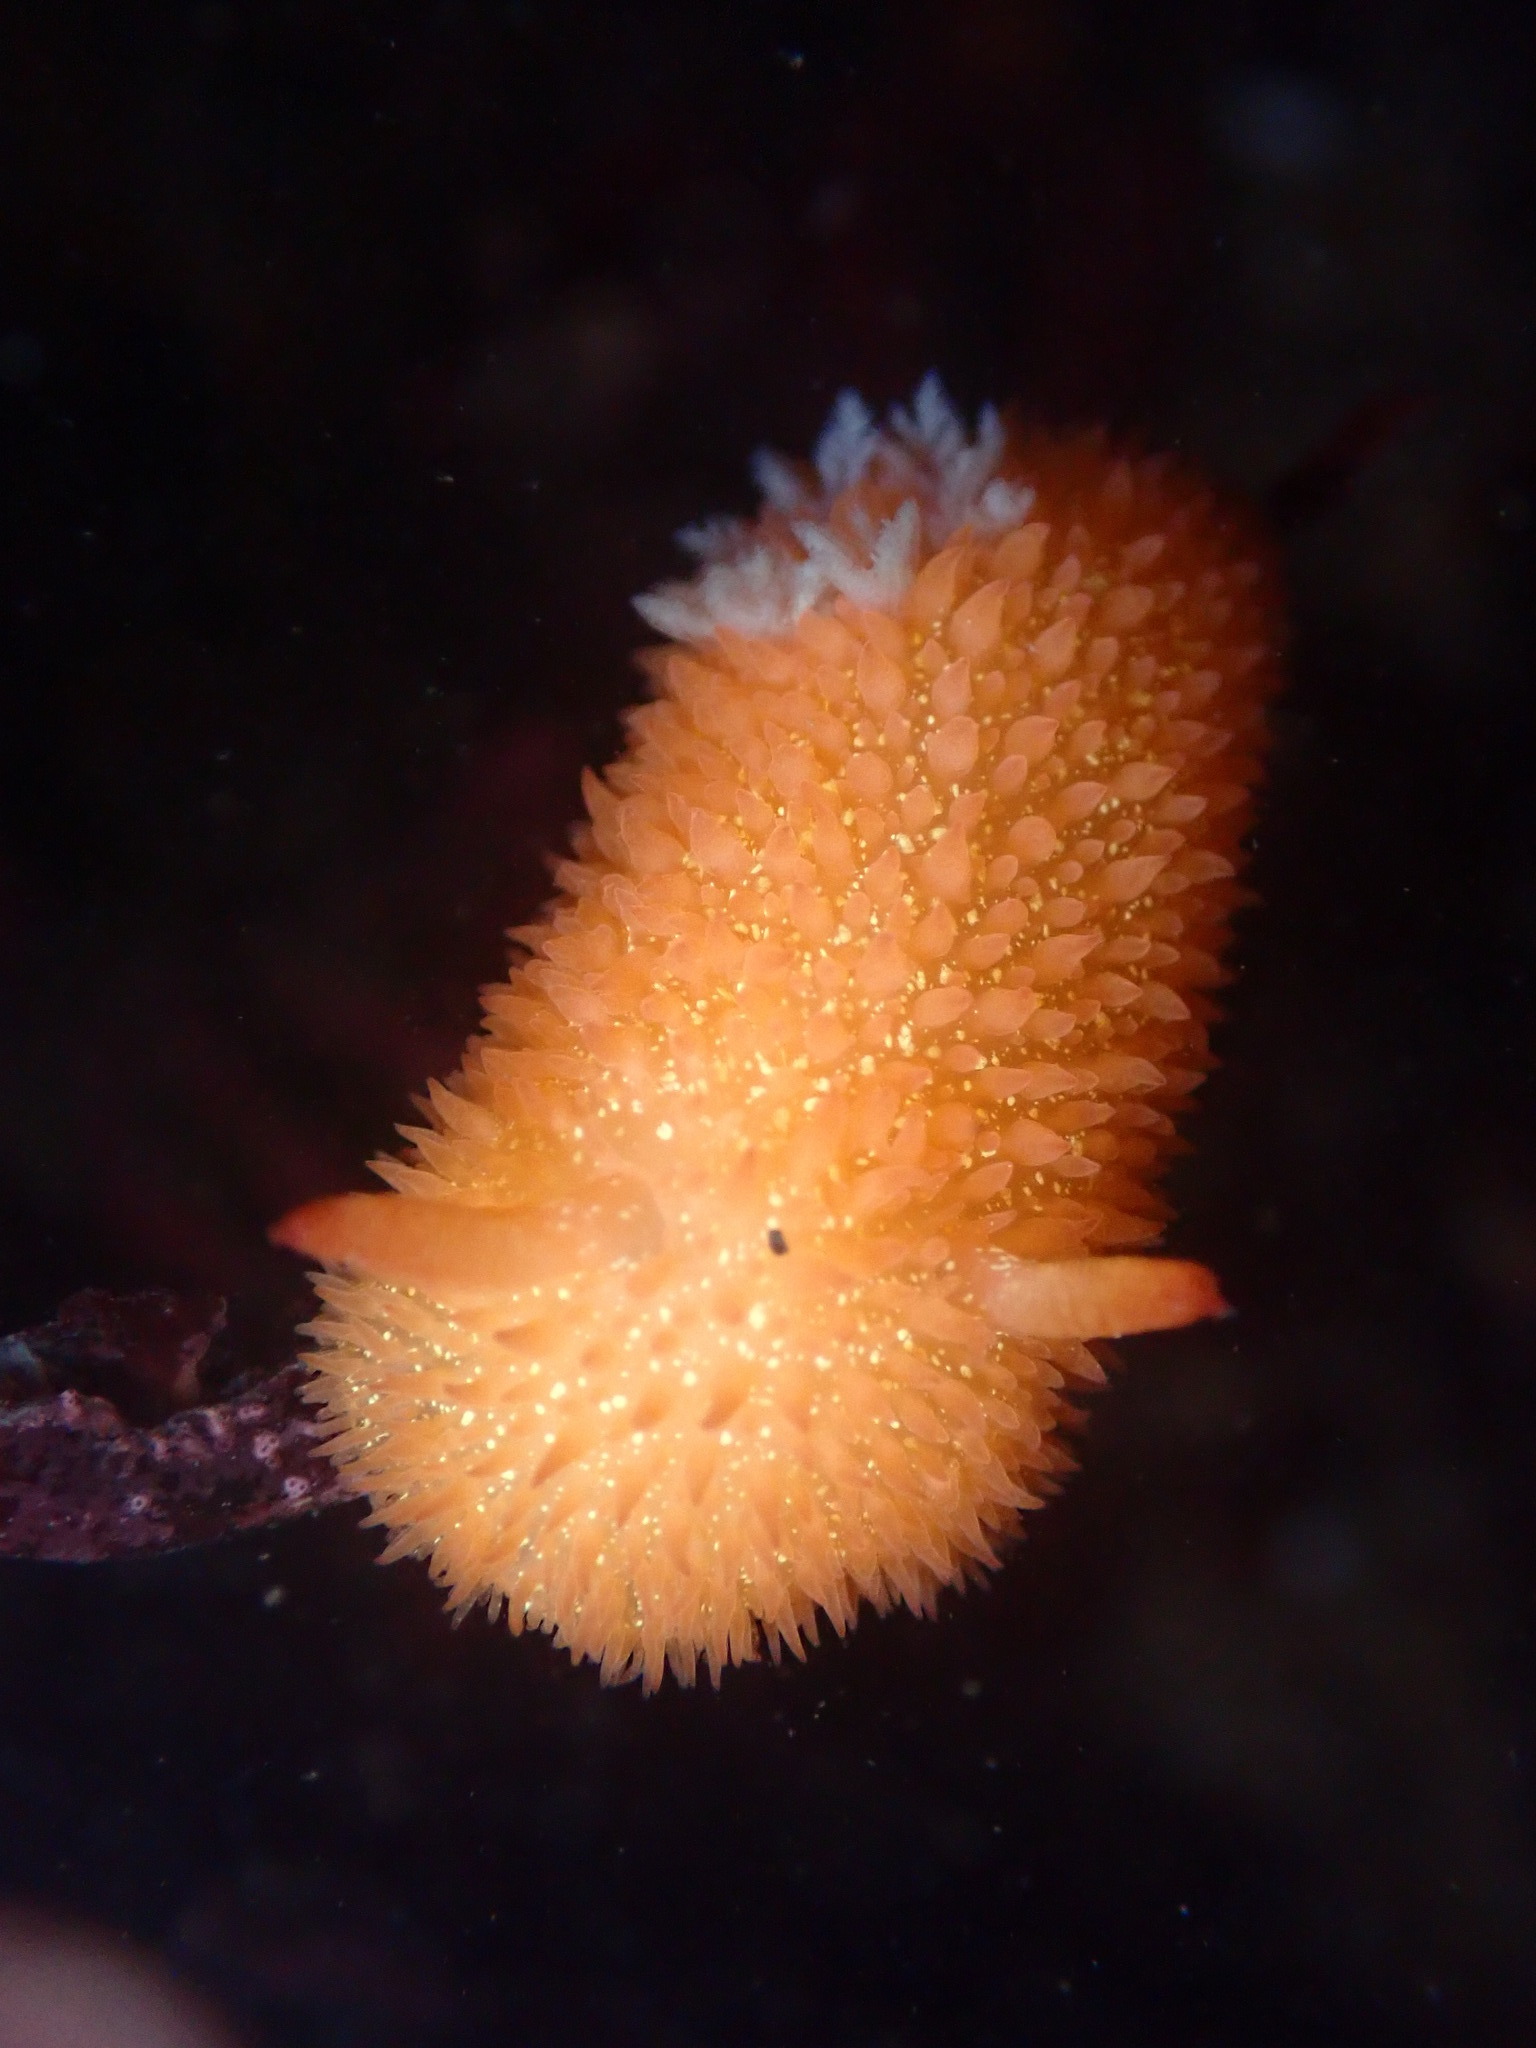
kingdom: Animalia
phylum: Mollusca
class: Gastropoda
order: Nudibranchia
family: Onchidorididae
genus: Acanthodoris
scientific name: Acanthodoris lutea
